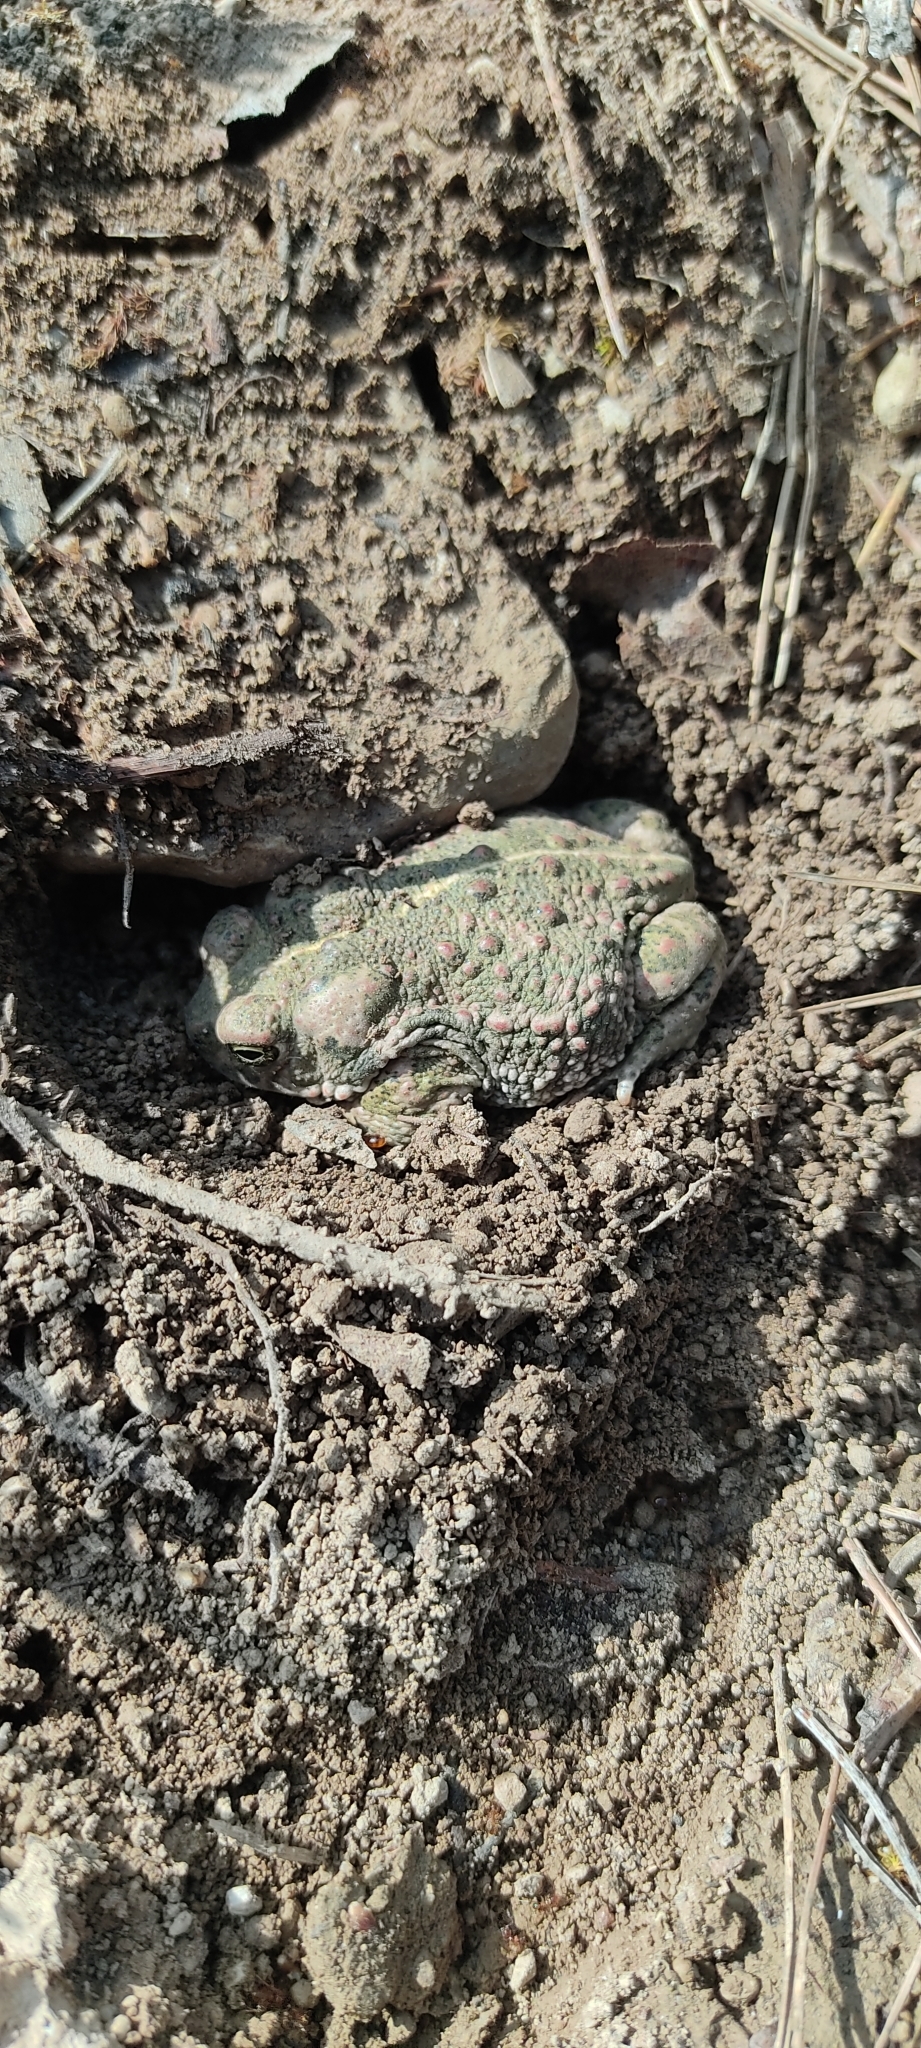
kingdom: Animalia
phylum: Chordata
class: Amphibia
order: Anura
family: Bufonidae
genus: Epidalea
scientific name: Epidalea calamita
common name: Natterjack toad
